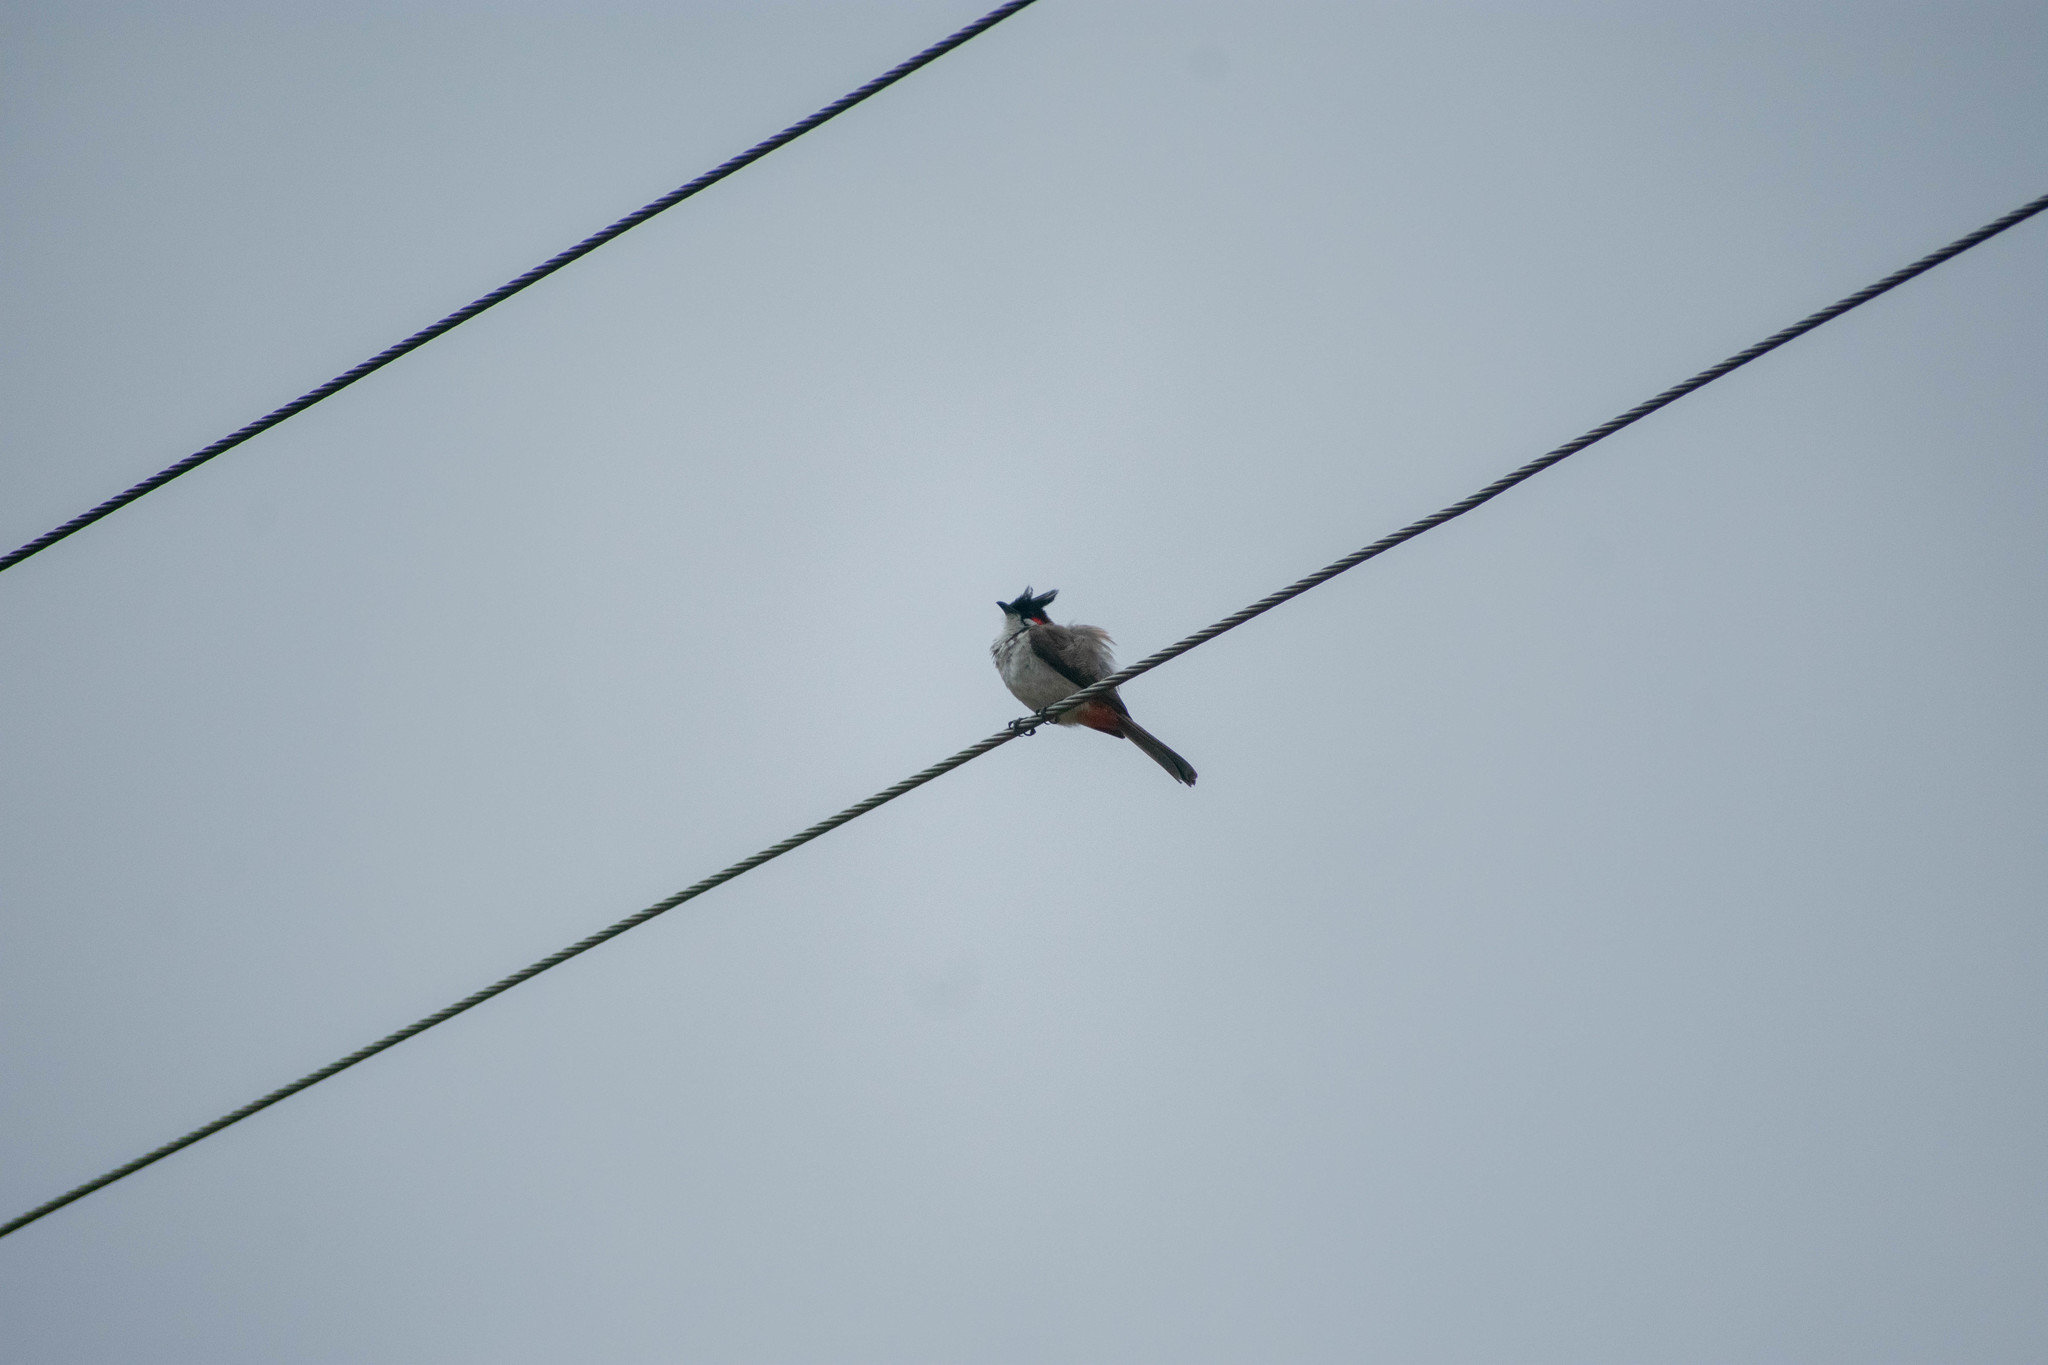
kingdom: Animalia
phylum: Chordata
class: Aves
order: Passeriformes
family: Pycnonotidae
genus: Pycnonotus
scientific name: Pycnonotus jocosus
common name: Red-whiskered bulbul
